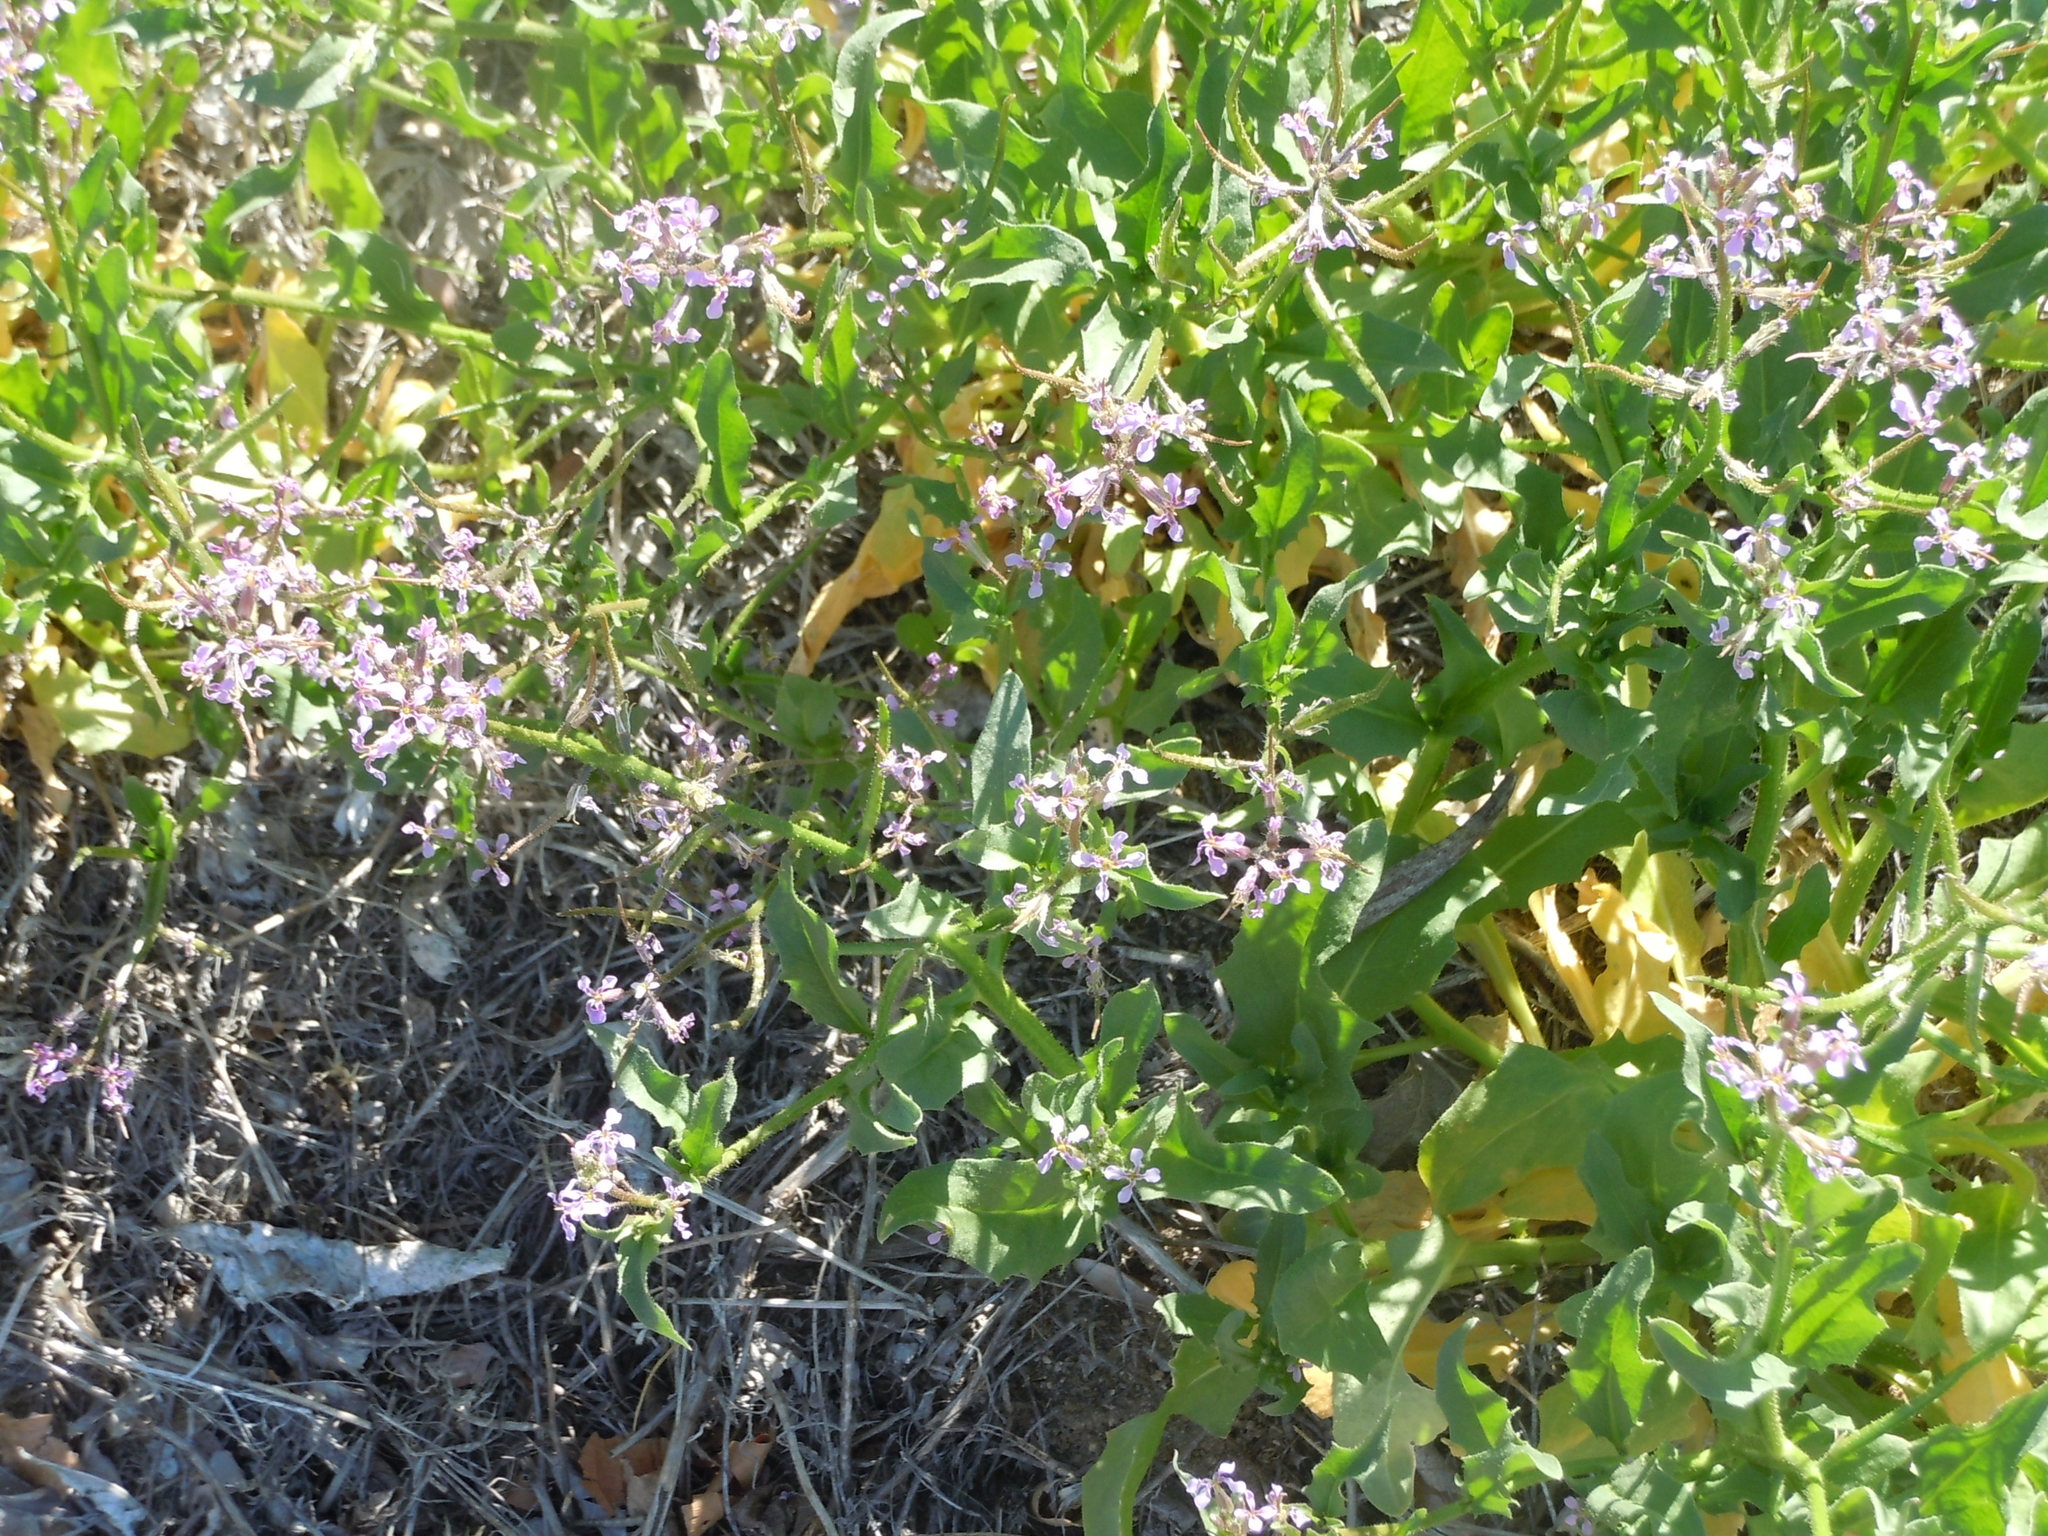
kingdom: Plantae
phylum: Tracheophyta
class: Magnoliopsida
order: Brassicales
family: Brassicaceae
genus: Chorispora
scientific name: Chorispora tenella
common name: Crossflower
